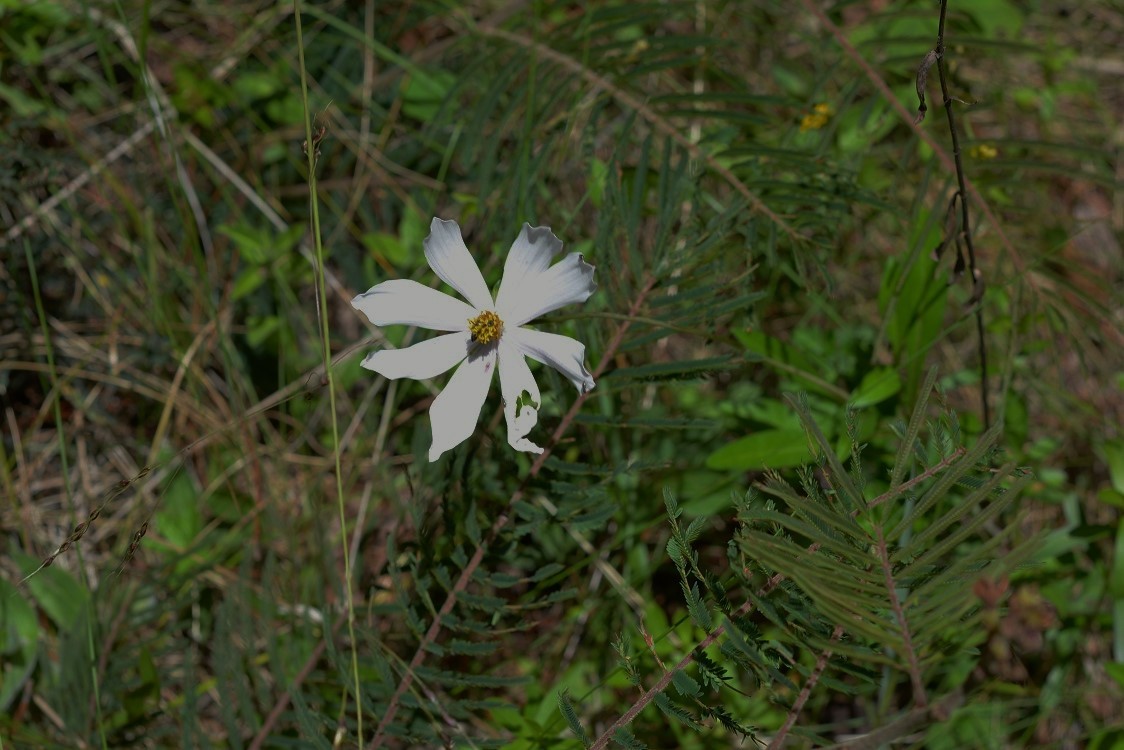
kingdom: Plantae
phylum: Tracheophyta
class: Magnoliopsida
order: Asterales
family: Asteraceae
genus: Cosmos
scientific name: Cosmos diversifolius
